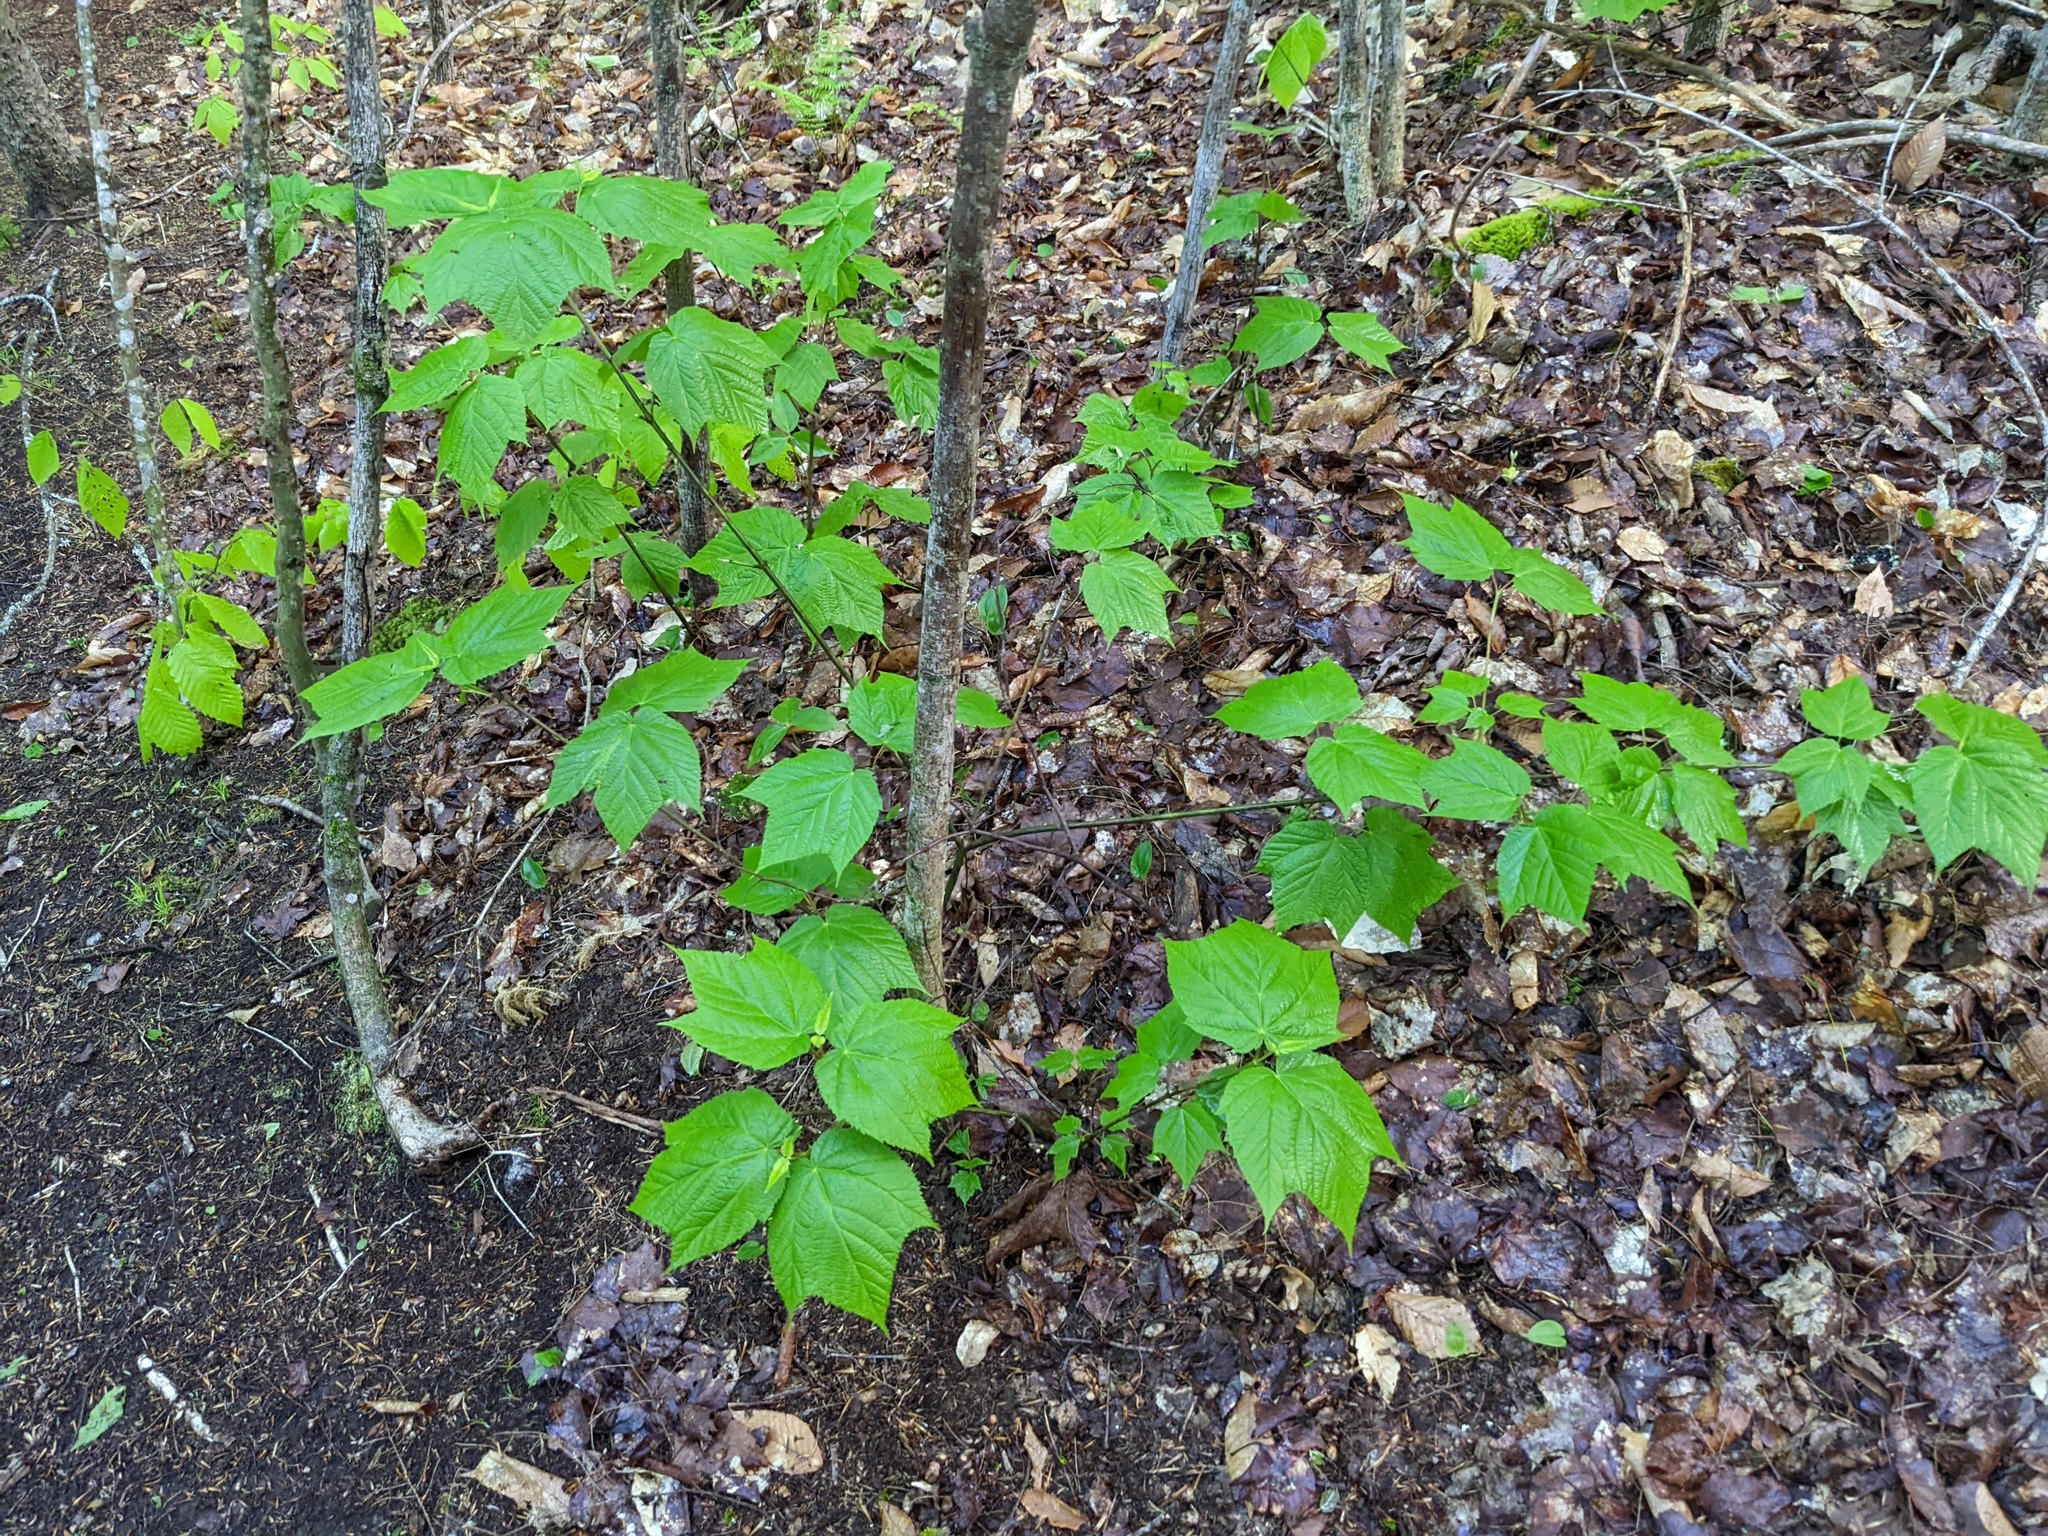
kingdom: Plantae
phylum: Tracheophyta
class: Magnoliopsida
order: Sapindales
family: Sapindaceae
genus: Acer
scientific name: Acer pensylvanicum
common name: Moosewood
